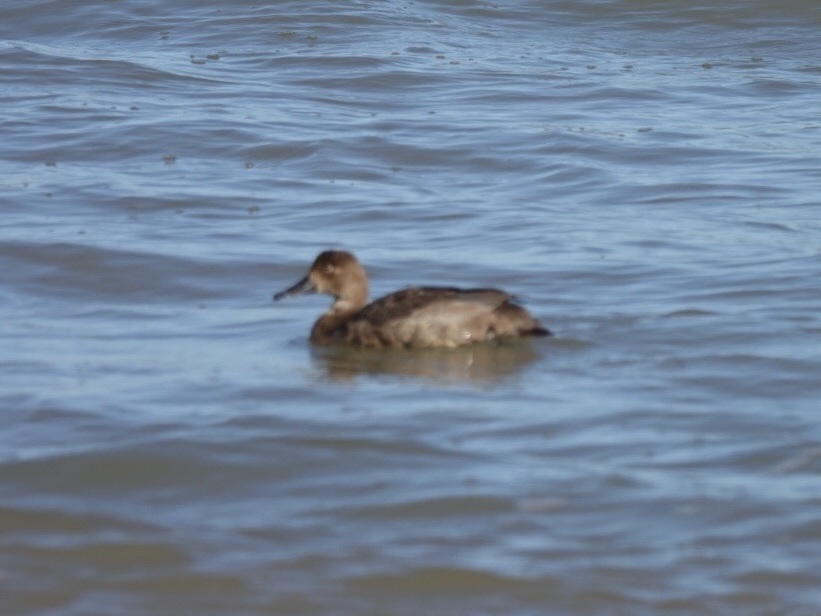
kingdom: Animalia
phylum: Chordata
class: Aves
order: Anseriformes
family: Anatidae
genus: Aythya
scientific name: Aythya americana
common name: Redhead
